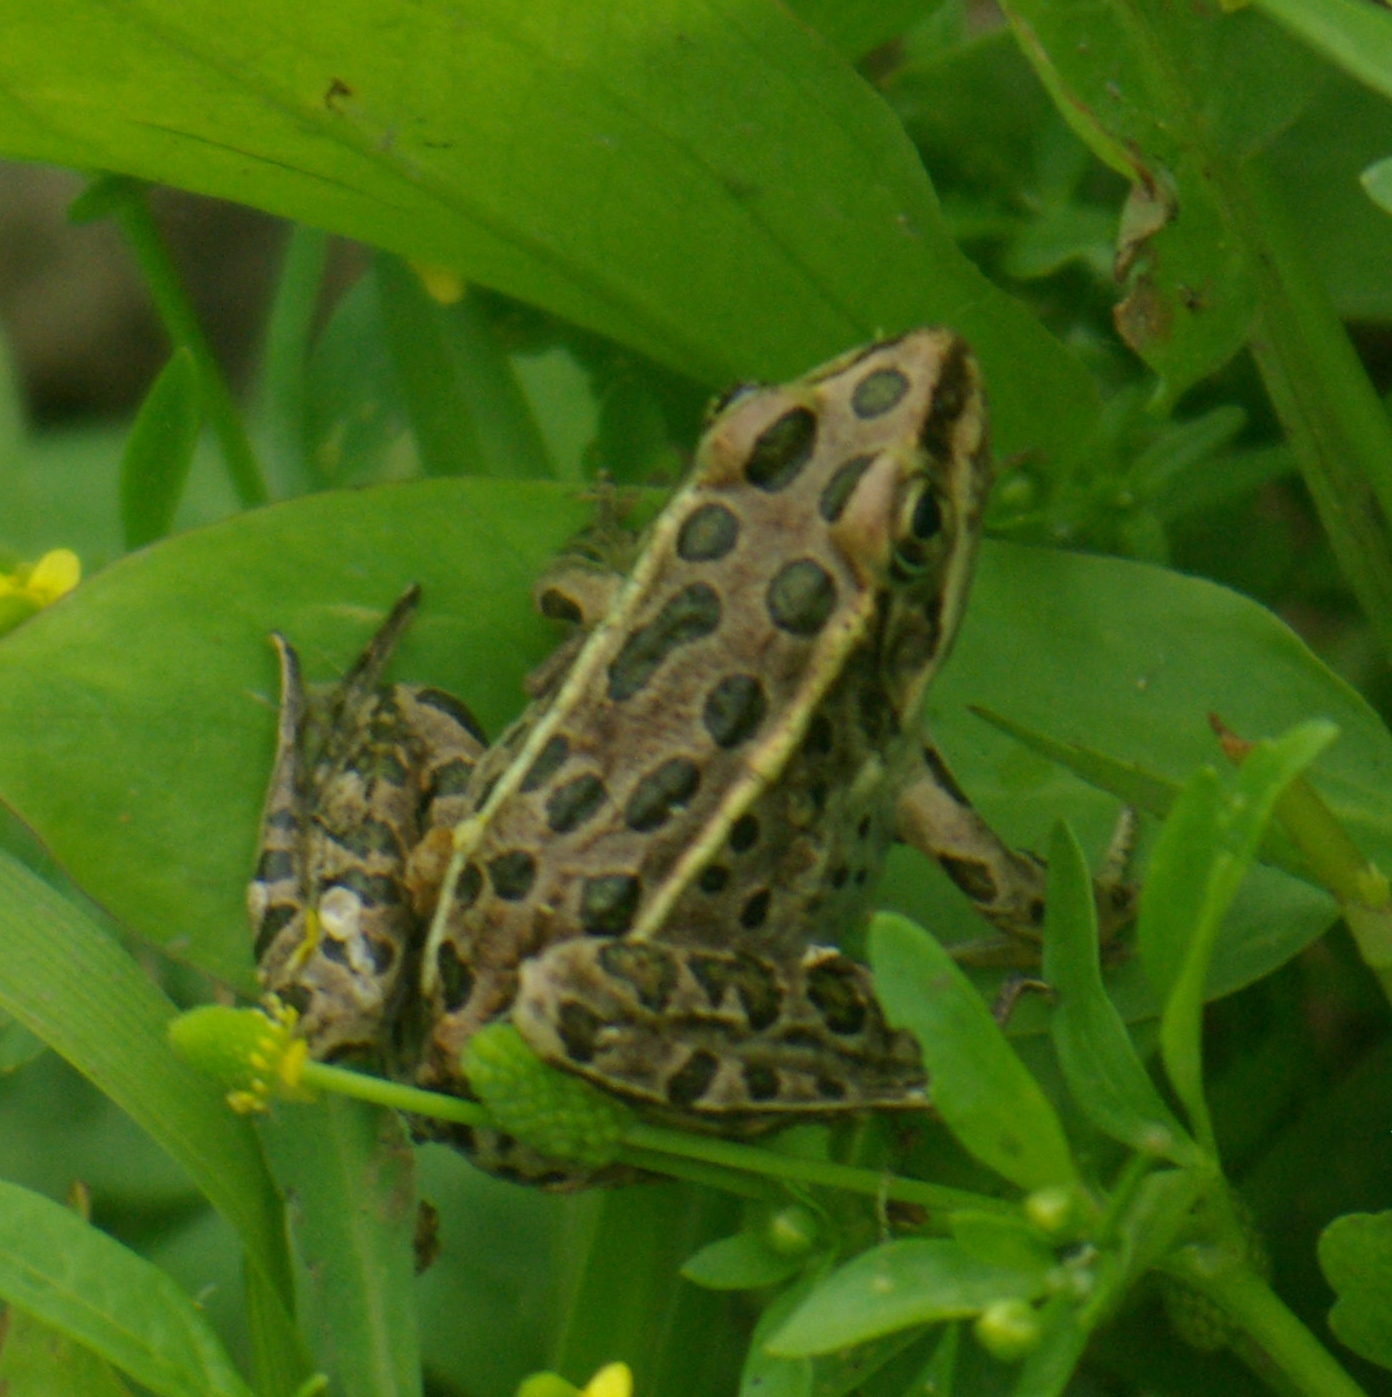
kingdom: Animalia
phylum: Chordata
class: Amphibia
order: Anura
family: Ranidae
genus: Lithobates
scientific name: Lithobates pipiens
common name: Northern leopard frog
